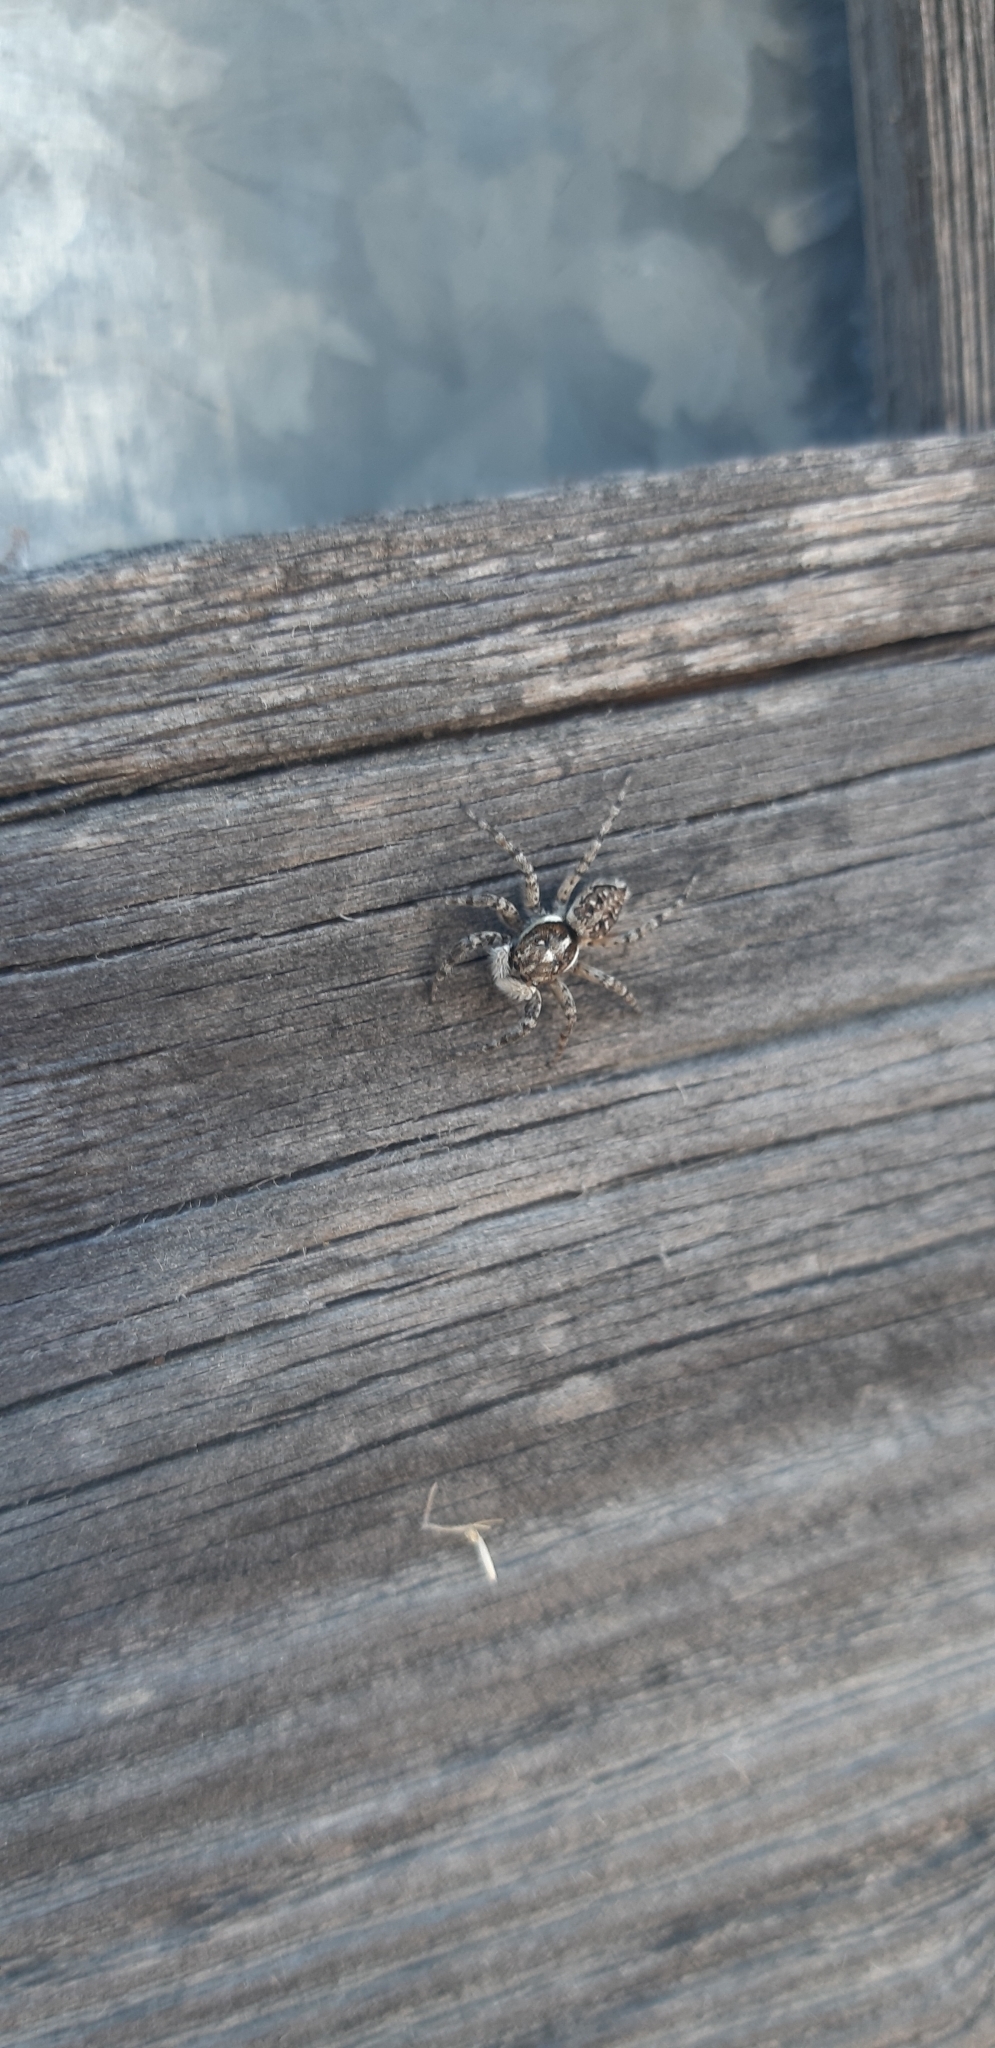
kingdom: Animalia
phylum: Arthropoda
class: Arachnida
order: Araneae
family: Salticidae
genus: Menemerus
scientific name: Menemerus semilimbatus
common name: Jumping spider
